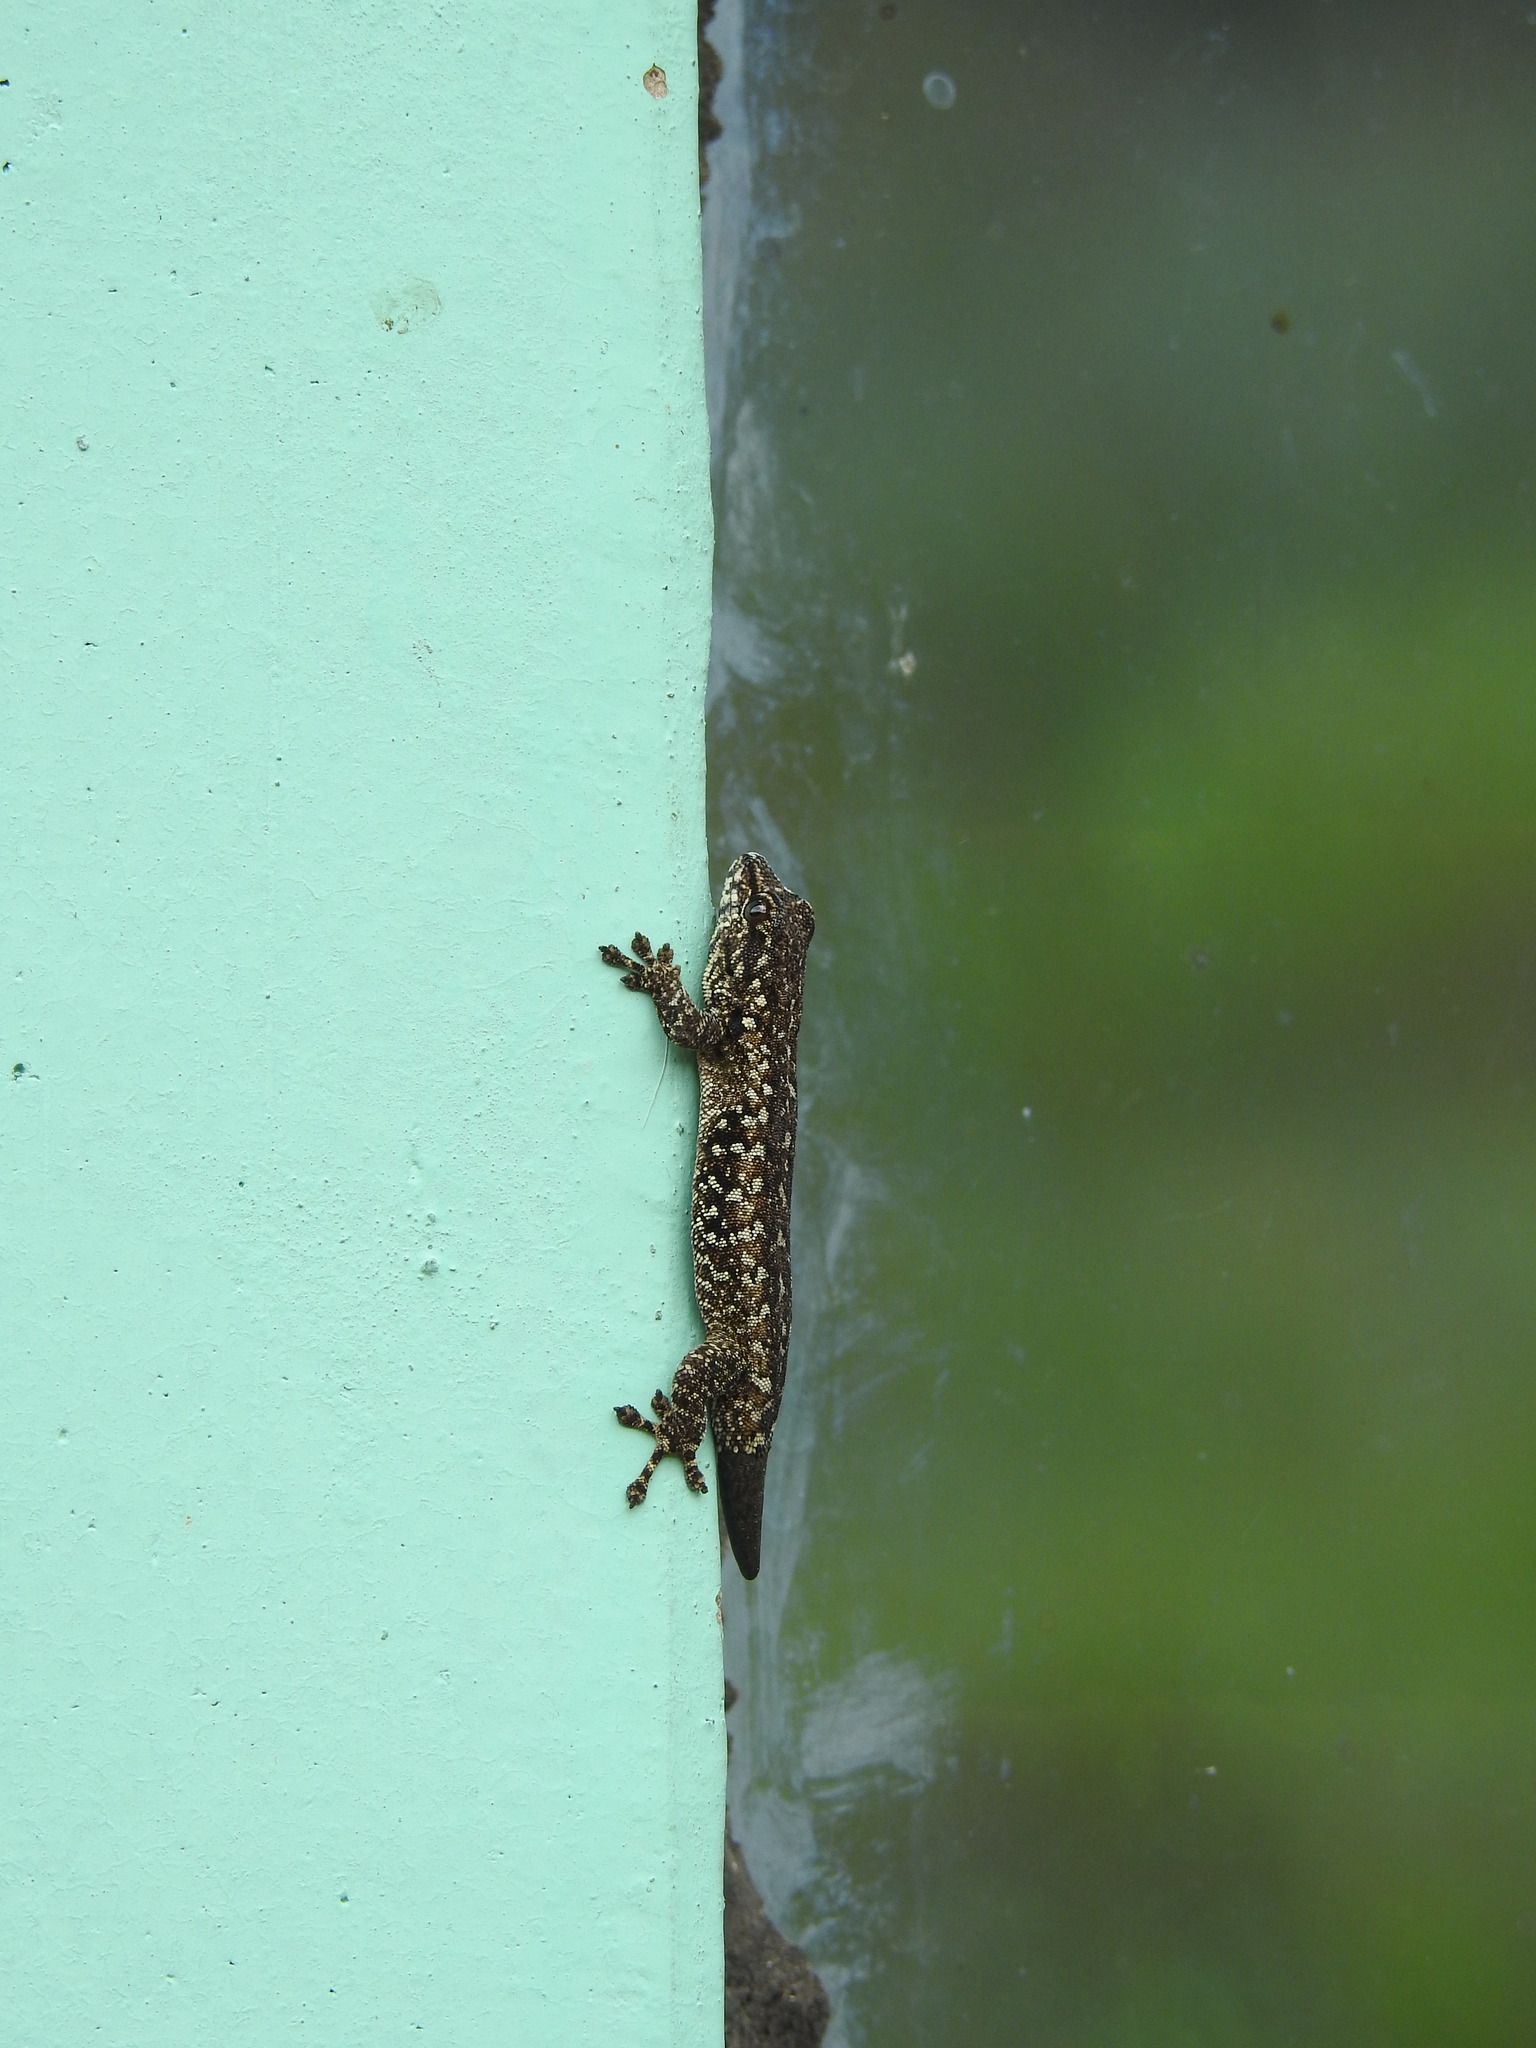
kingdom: Animalia
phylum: Chordata
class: Squamata
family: Gekkonidae
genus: Lygodactylus
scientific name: Lygodactylus angularis
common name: Angulate dwarf gecko
